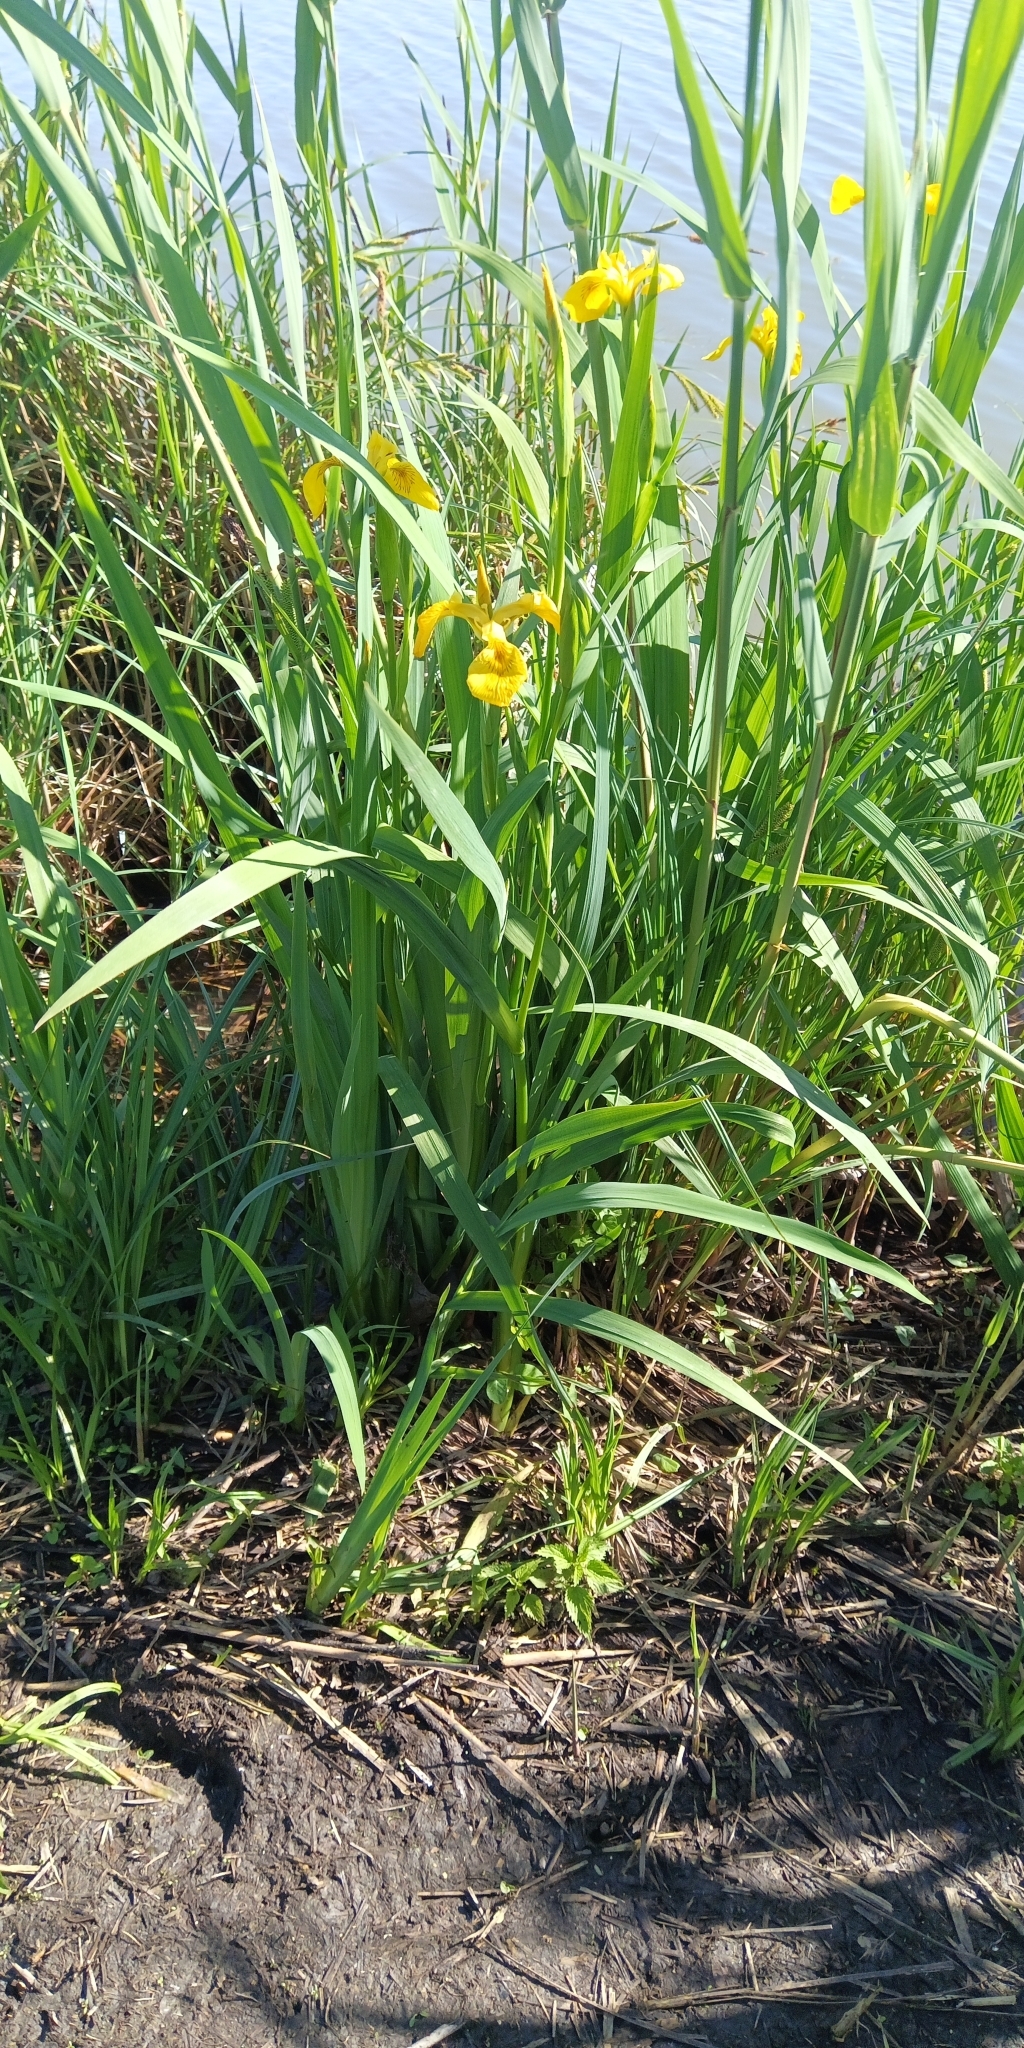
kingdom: Plantae
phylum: Tracheophyta
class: Liliopsida
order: Asparagales
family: Iridaceae
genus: Iris
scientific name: Iris pseudacorus
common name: Yellow flag
